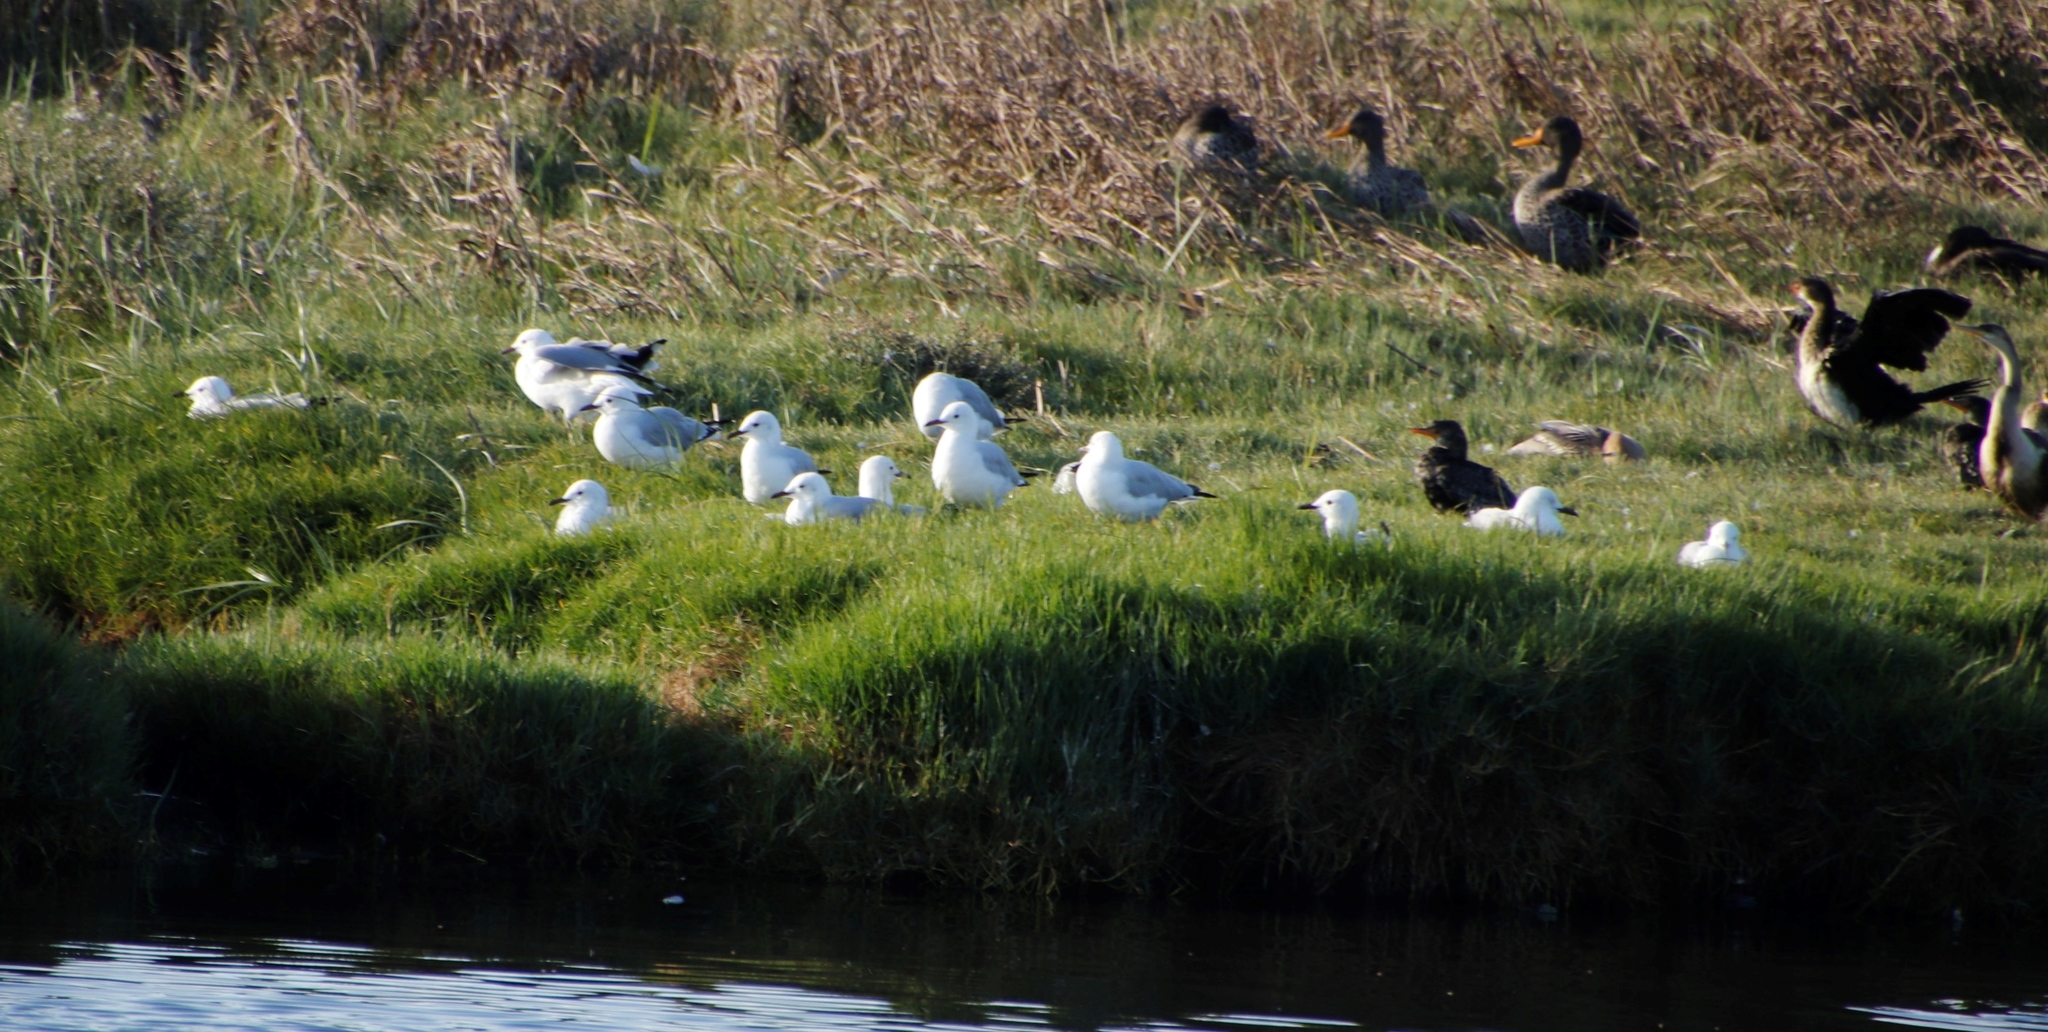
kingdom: Animalia
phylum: Chordata
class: Aves
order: Charadriiformes
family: Laridae
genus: Chroicocephalus
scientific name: Chroicocephalus hartlaubii
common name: Hartlaub's gull
